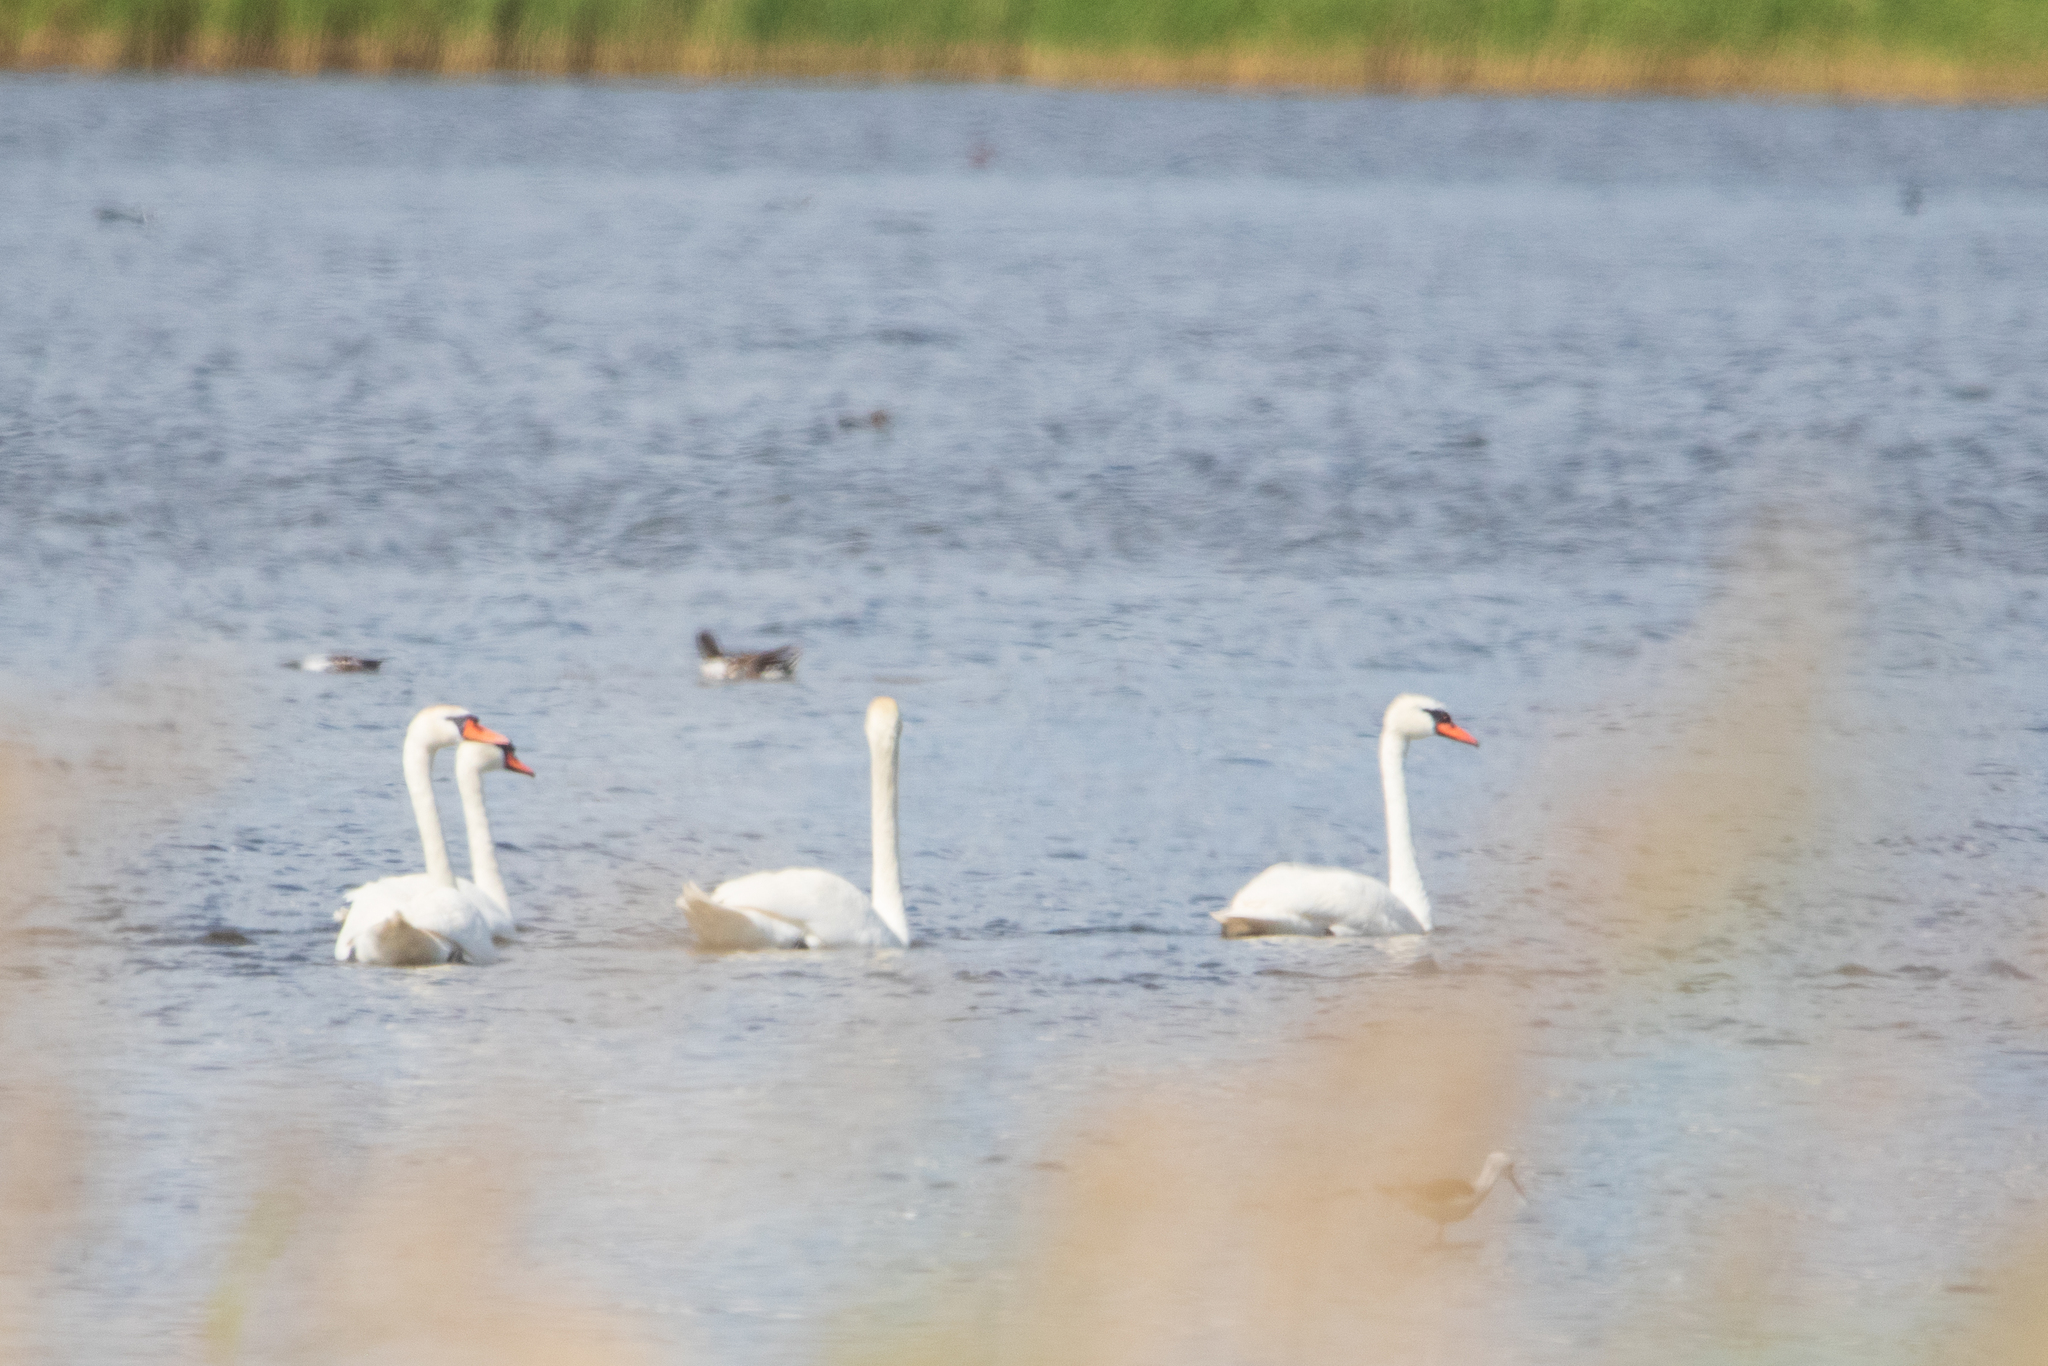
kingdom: Animalia
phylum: Chordata
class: Aves
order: Anseriformes
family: Anatidae
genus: Cygnus
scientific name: Cygnus olor
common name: Mute swan
